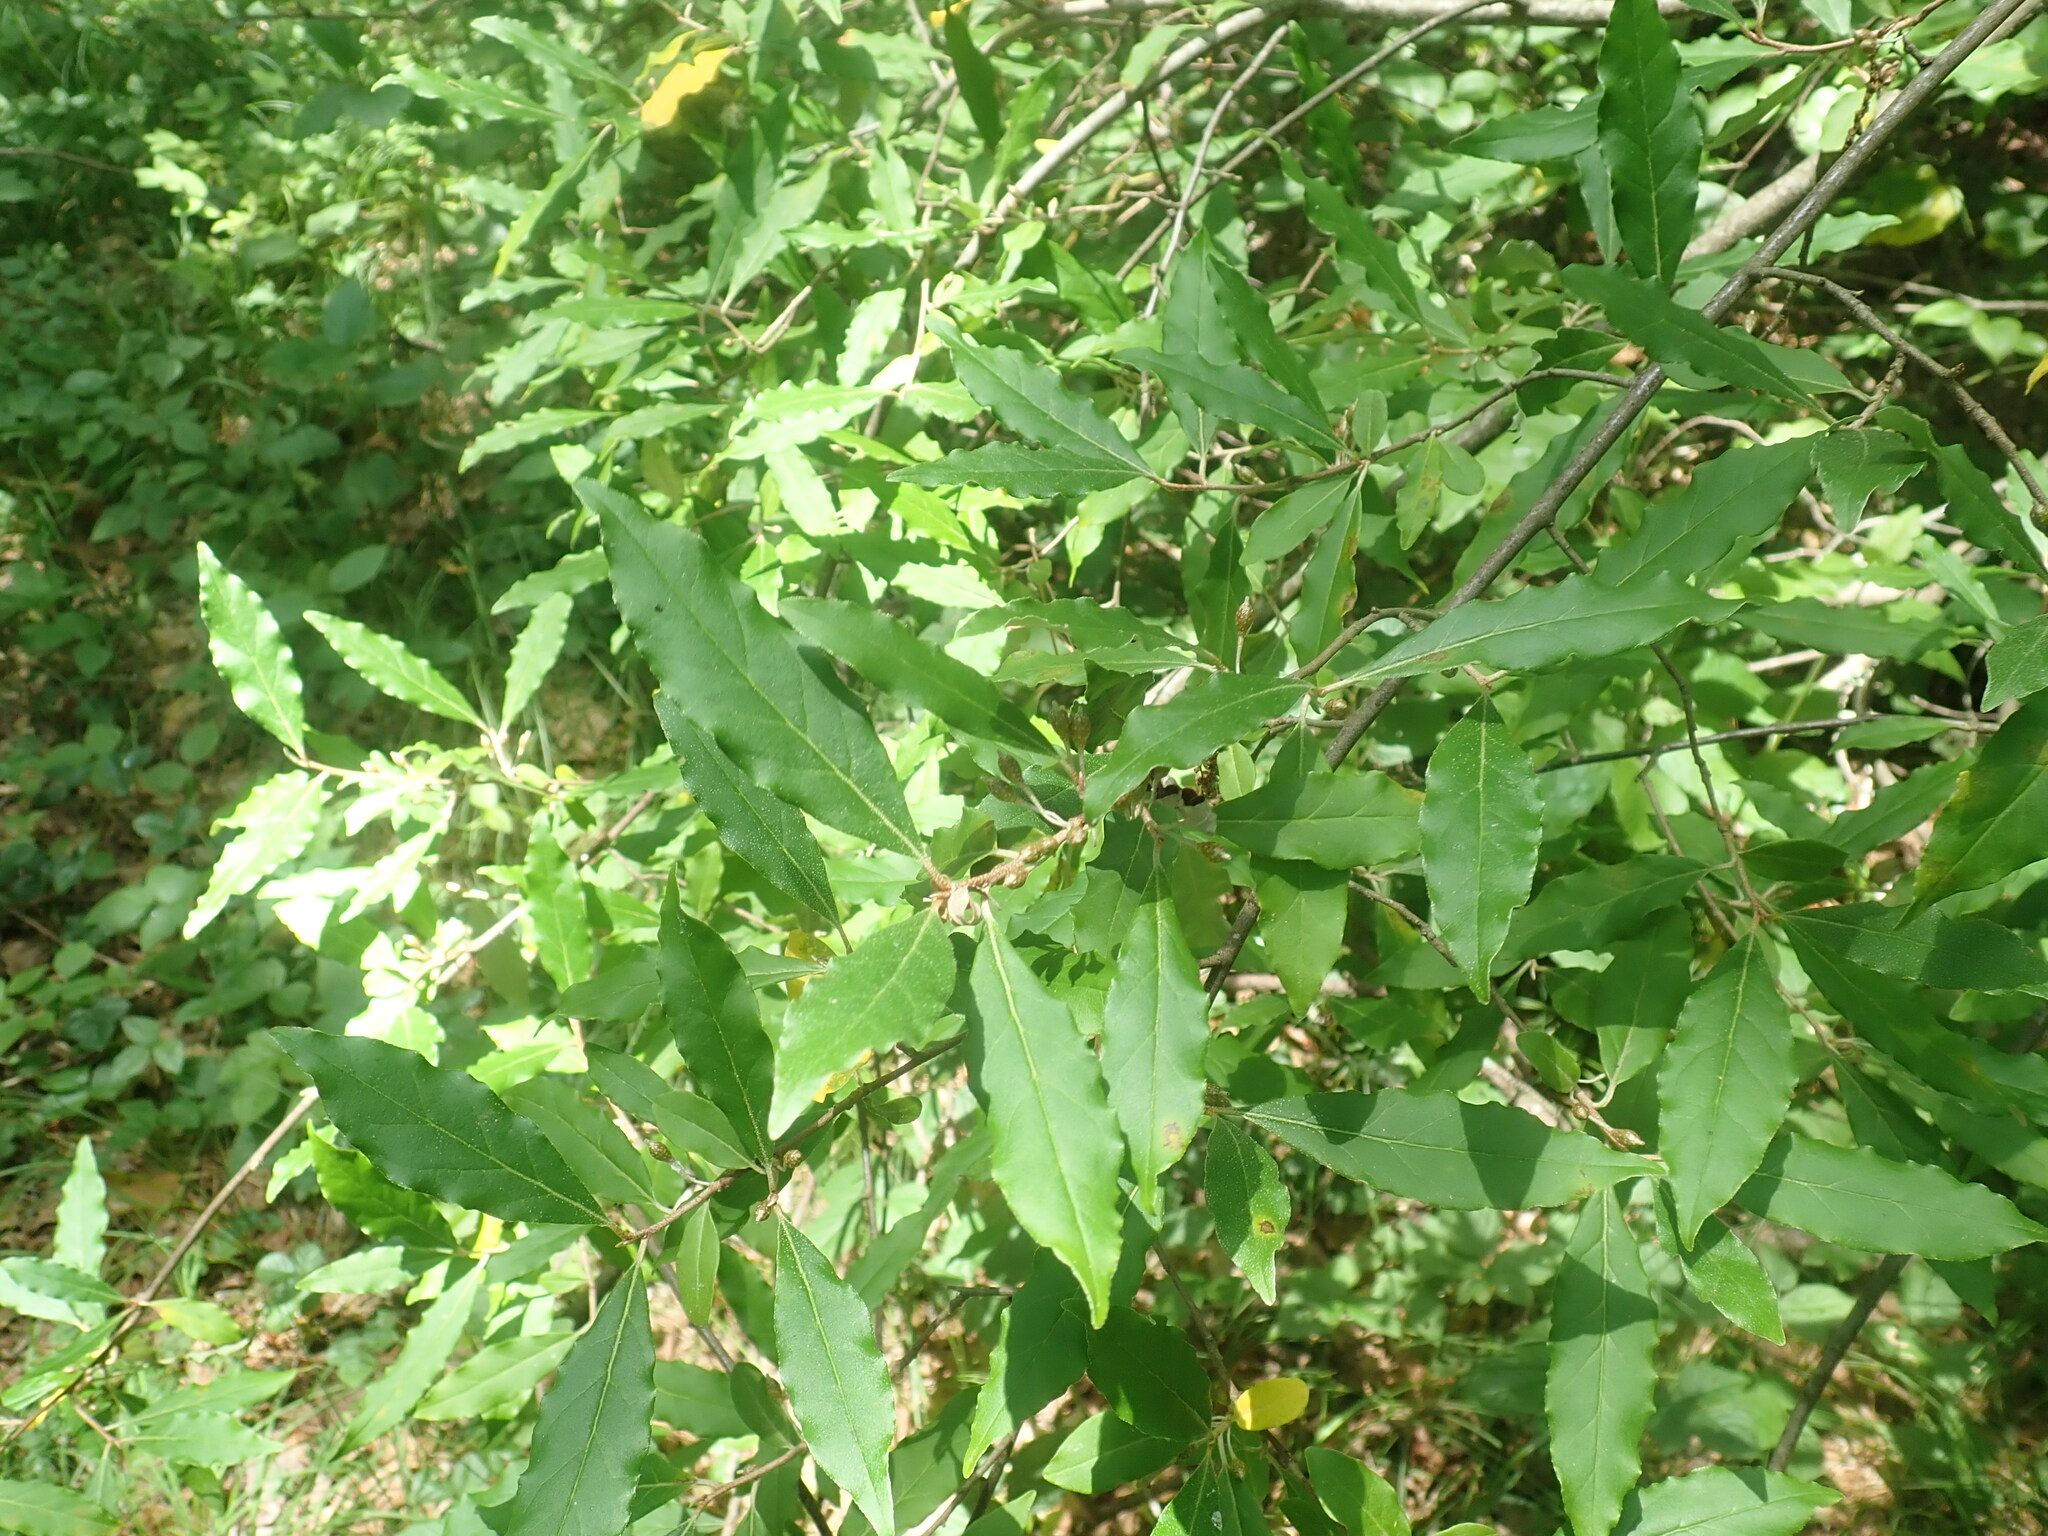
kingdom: Plantae
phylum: Tracheophyta
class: Magnoliopsida
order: Rosales
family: Elaeagnaceae
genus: Elaeagnus
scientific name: Elaeagnus umbellata
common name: Autumn olive
